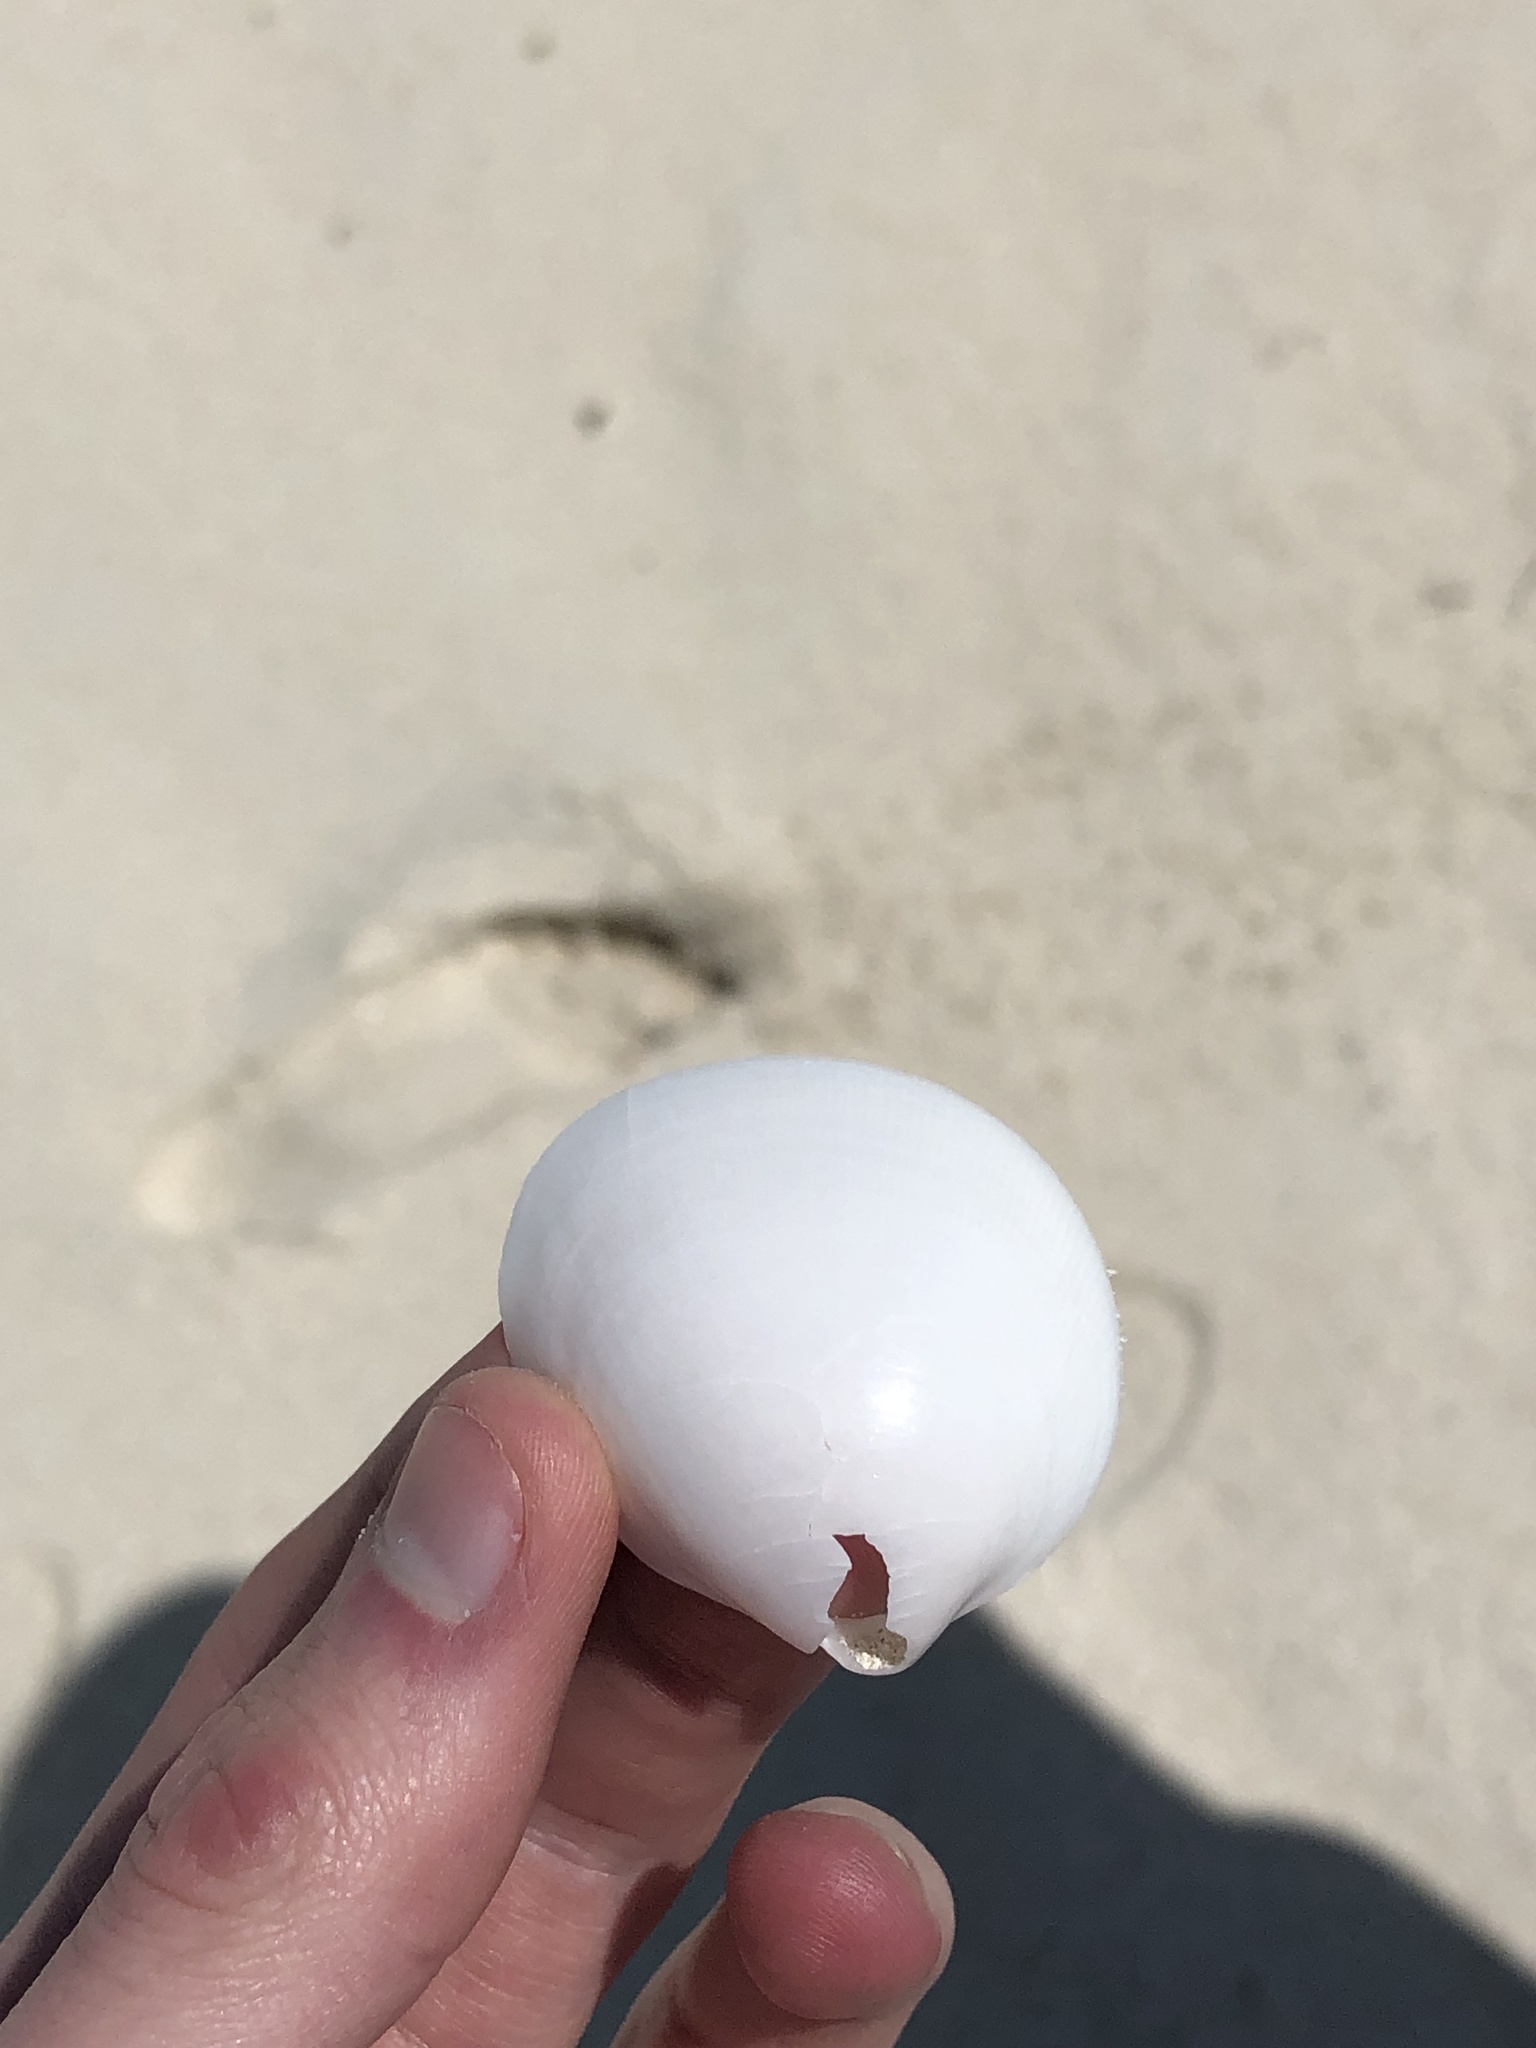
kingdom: Animalia
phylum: Mollusca
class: Bivalvia
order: Cardiida
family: Cardiidae
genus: Laevicardium
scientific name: Laevicardium serratum
